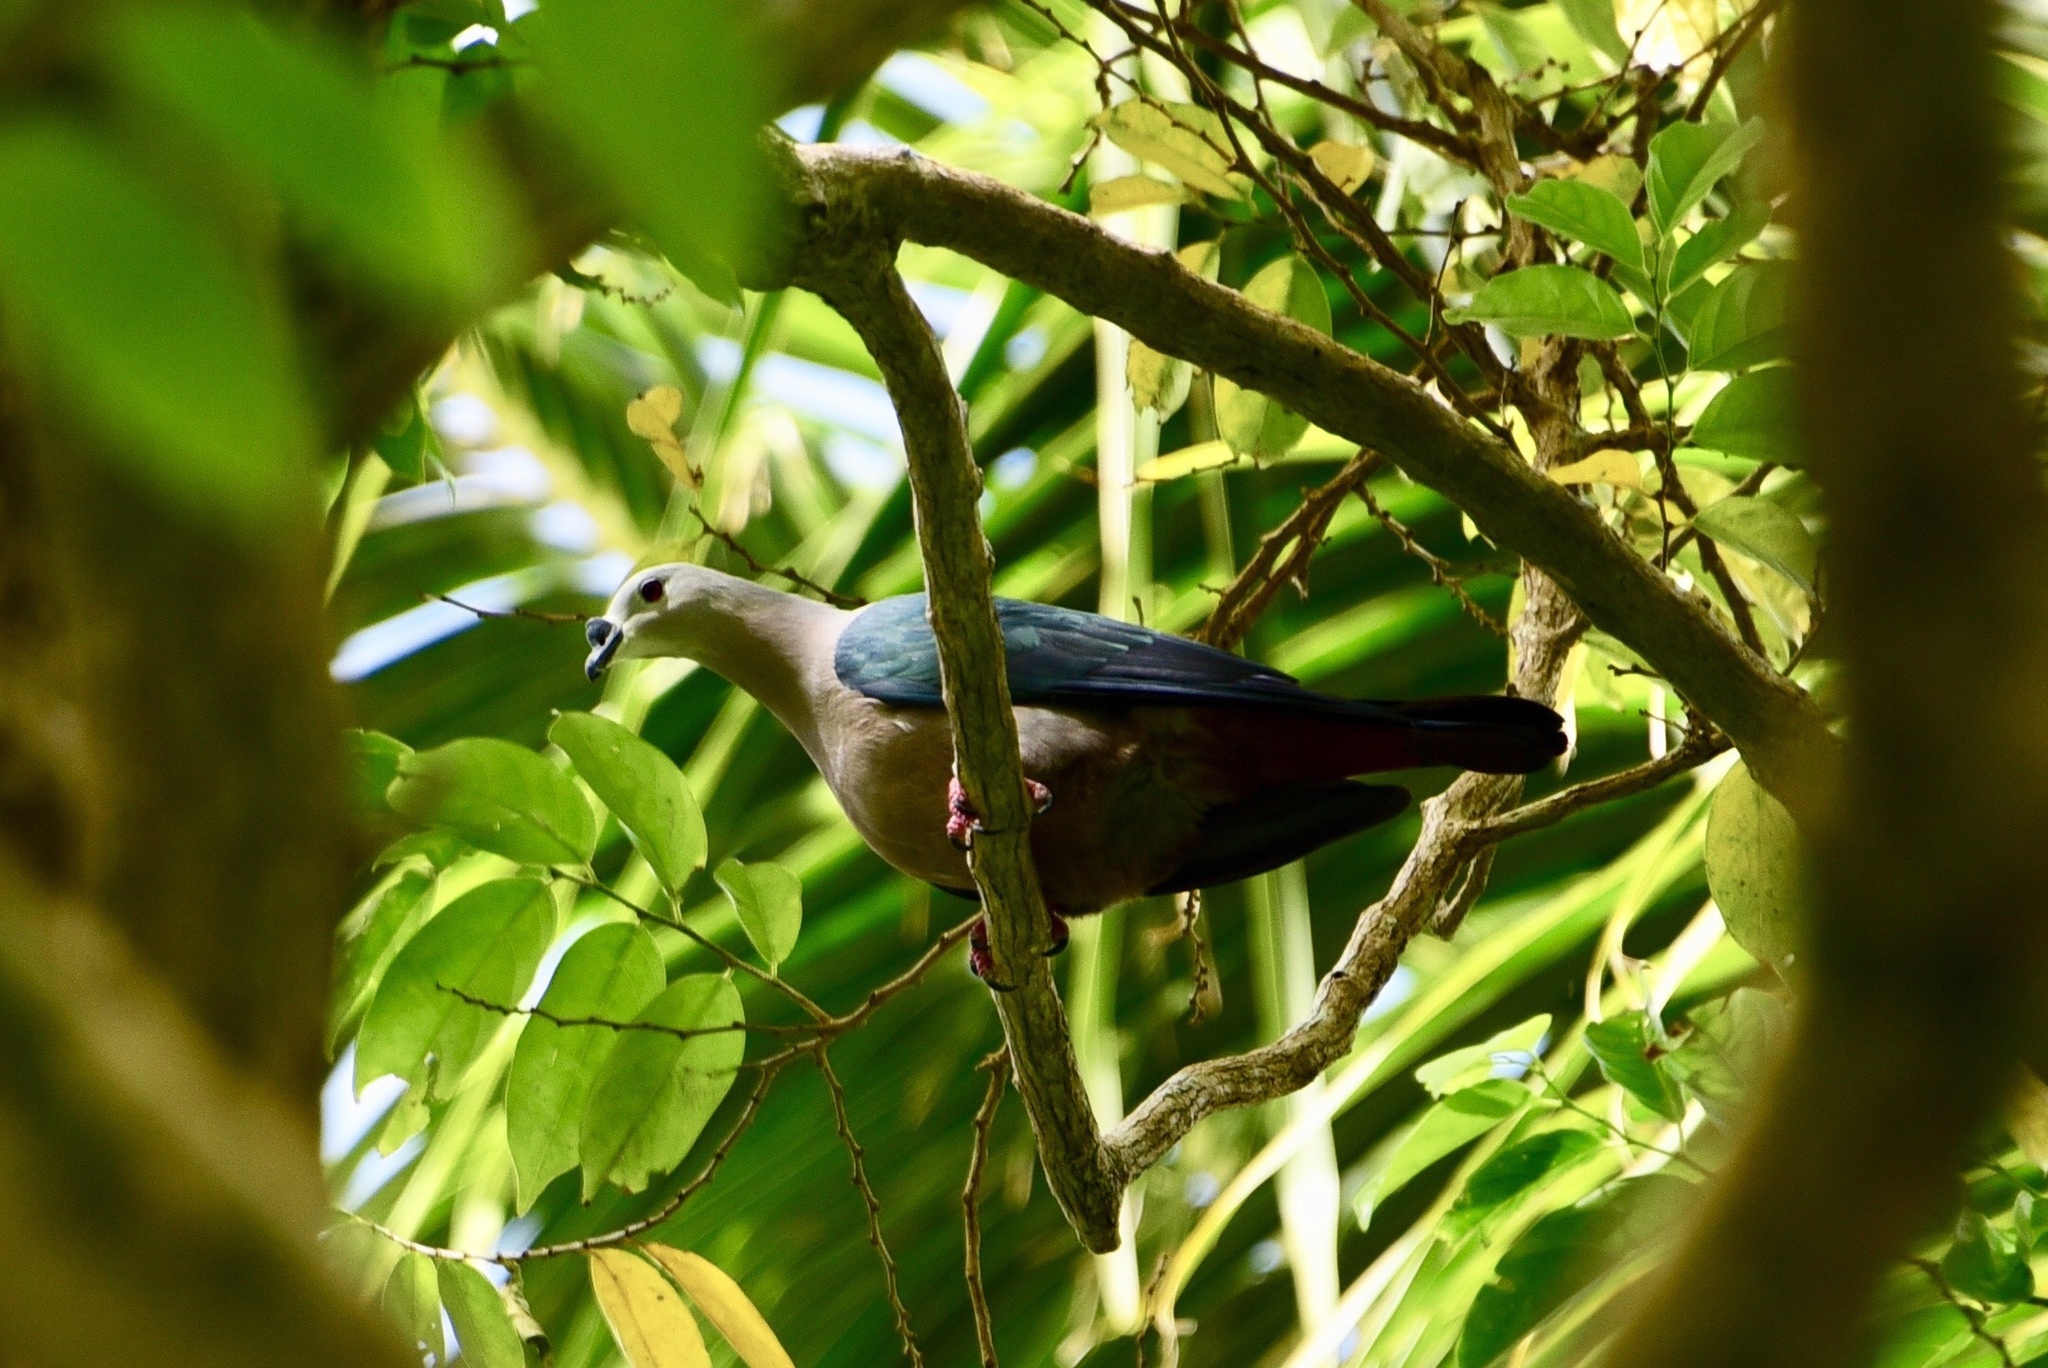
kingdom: Animalia
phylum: Chordata
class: Aves
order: Columbiformes
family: Columbidae
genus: Ducula
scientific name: Ducula pacifica
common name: Pacific imperial-pigeon
